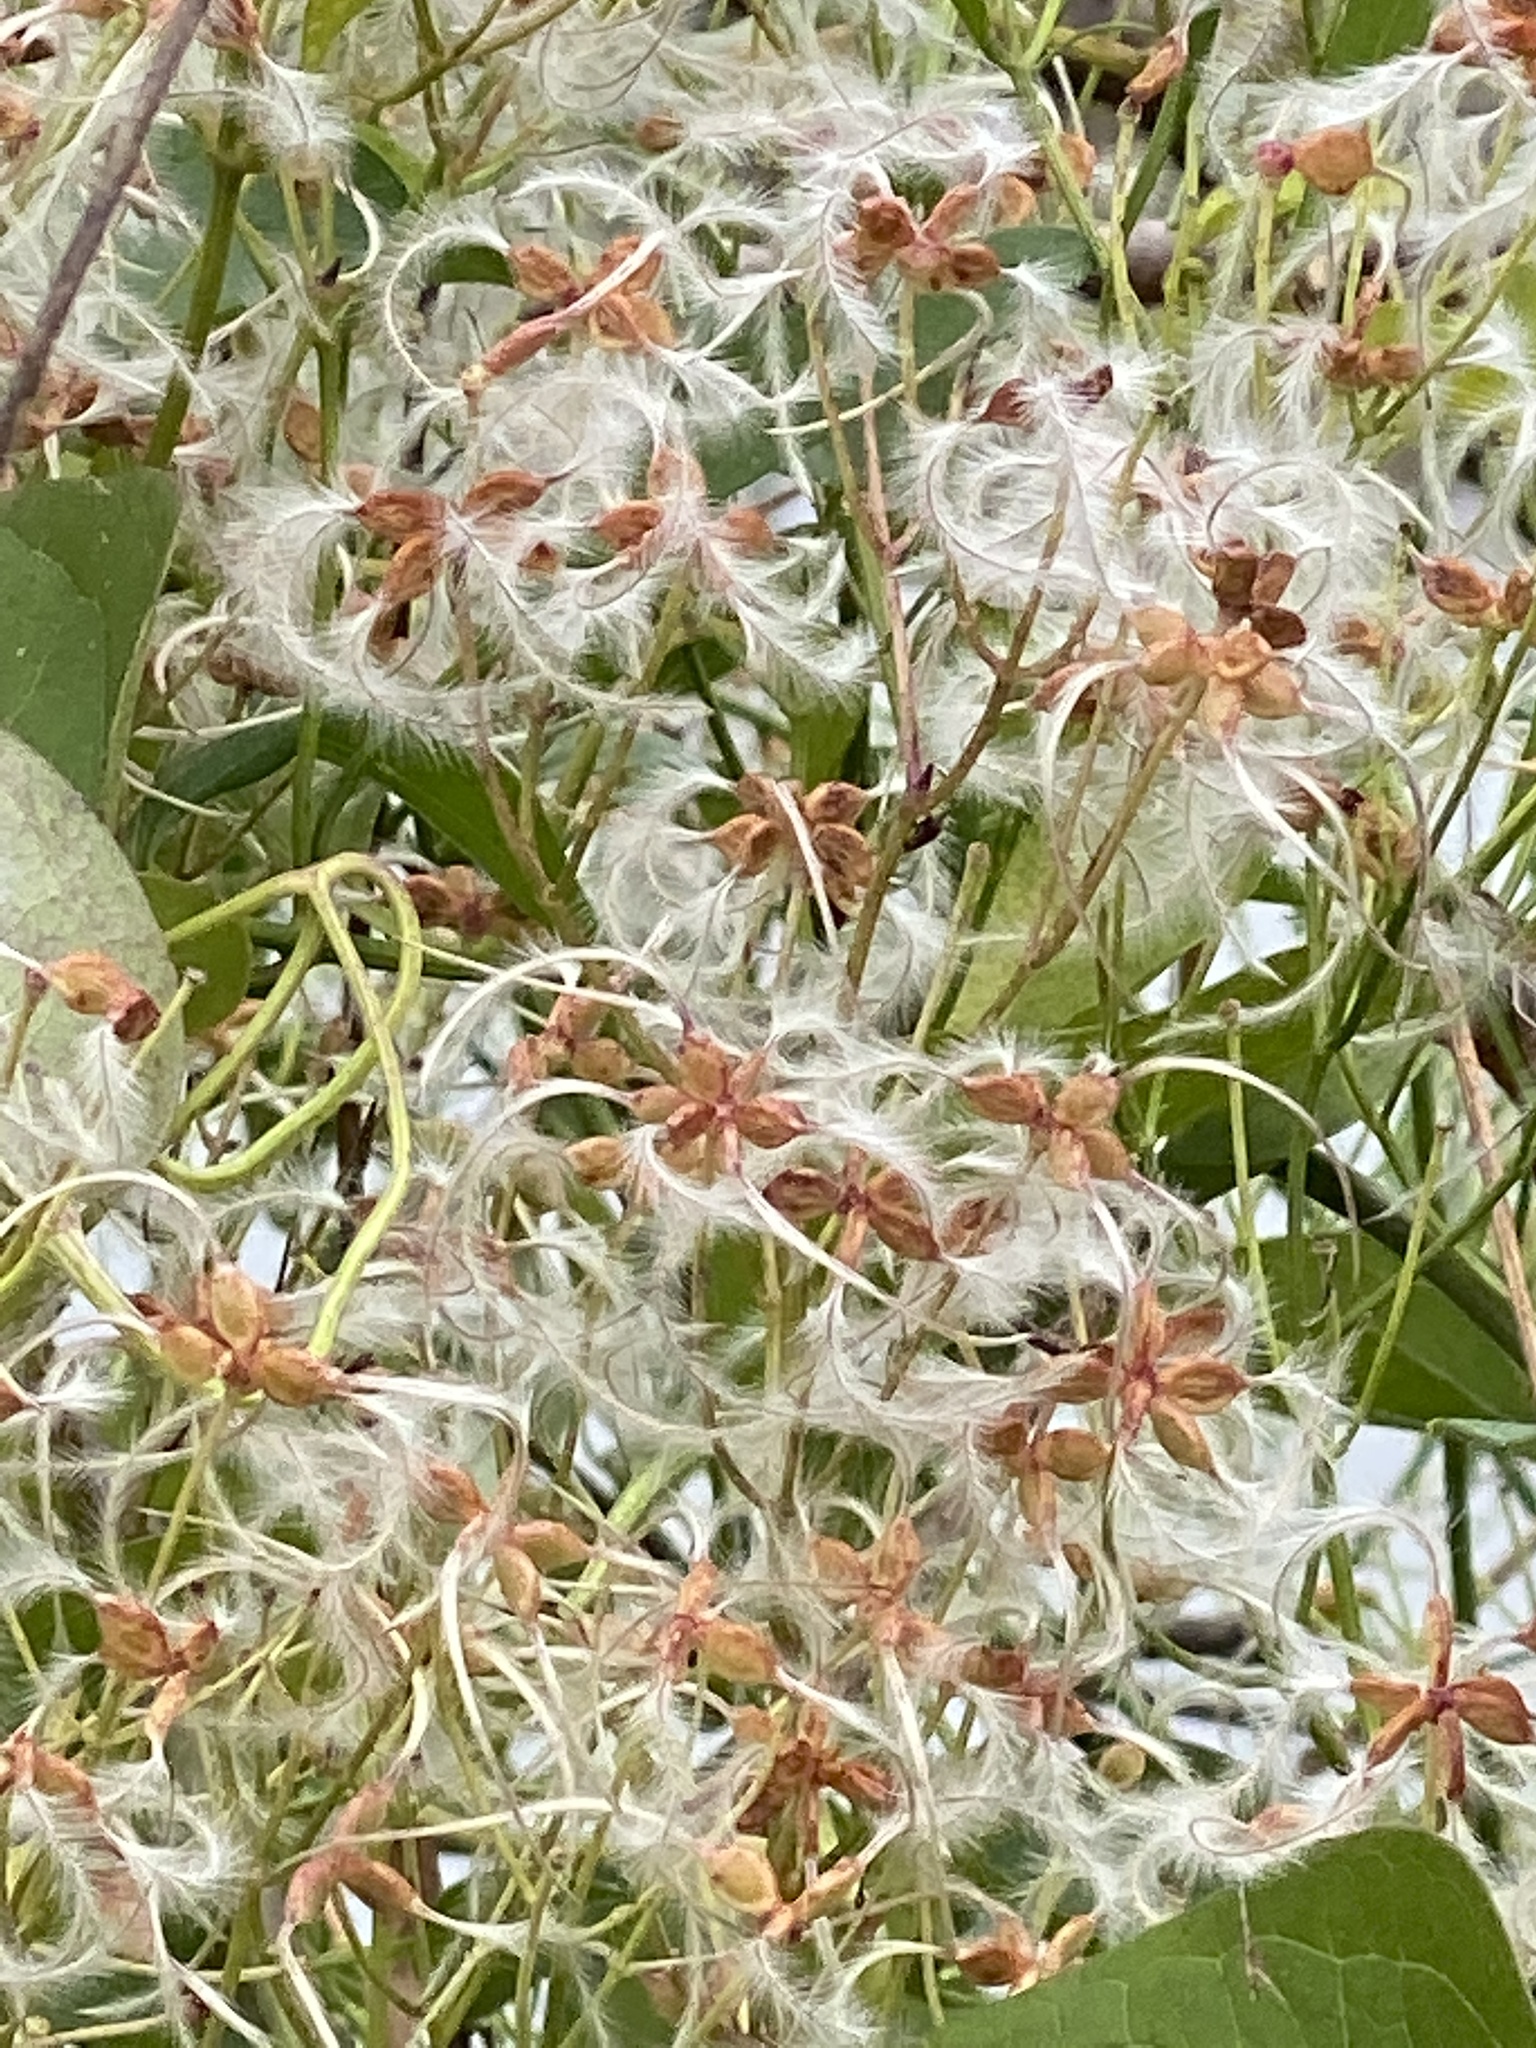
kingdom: Plantae
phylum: Tracheophyta
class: Magnoliopsida
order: Ranunculales
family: Ranunculaceae
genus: Clematis
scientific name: Clematis terniflora
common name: Sweet autumn clematis
